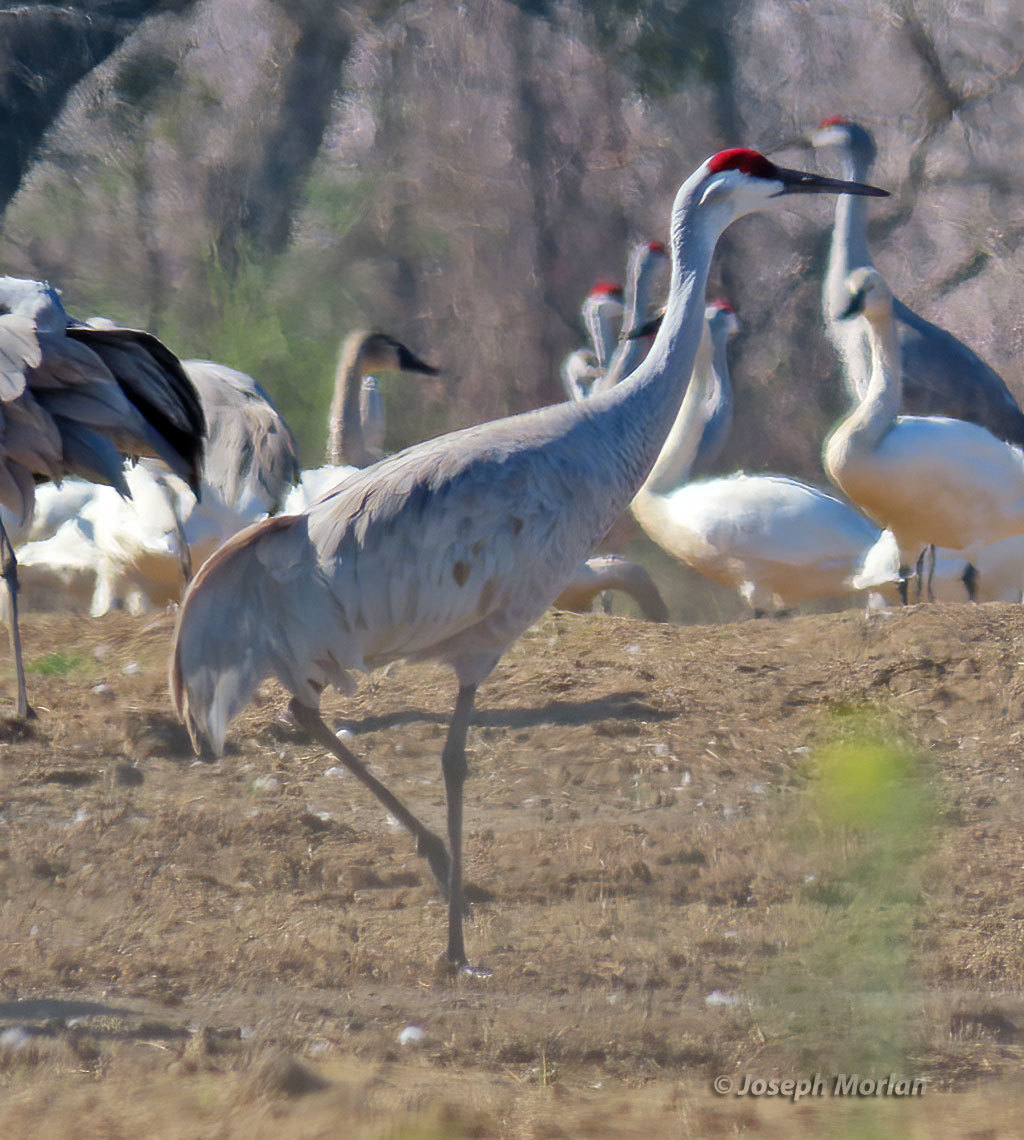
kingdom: Animalia
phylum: Chordata
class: Aves
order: Gruiformes
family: Gruidae
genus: Grus
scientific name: Grus canadensis
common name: Sandhill crane
